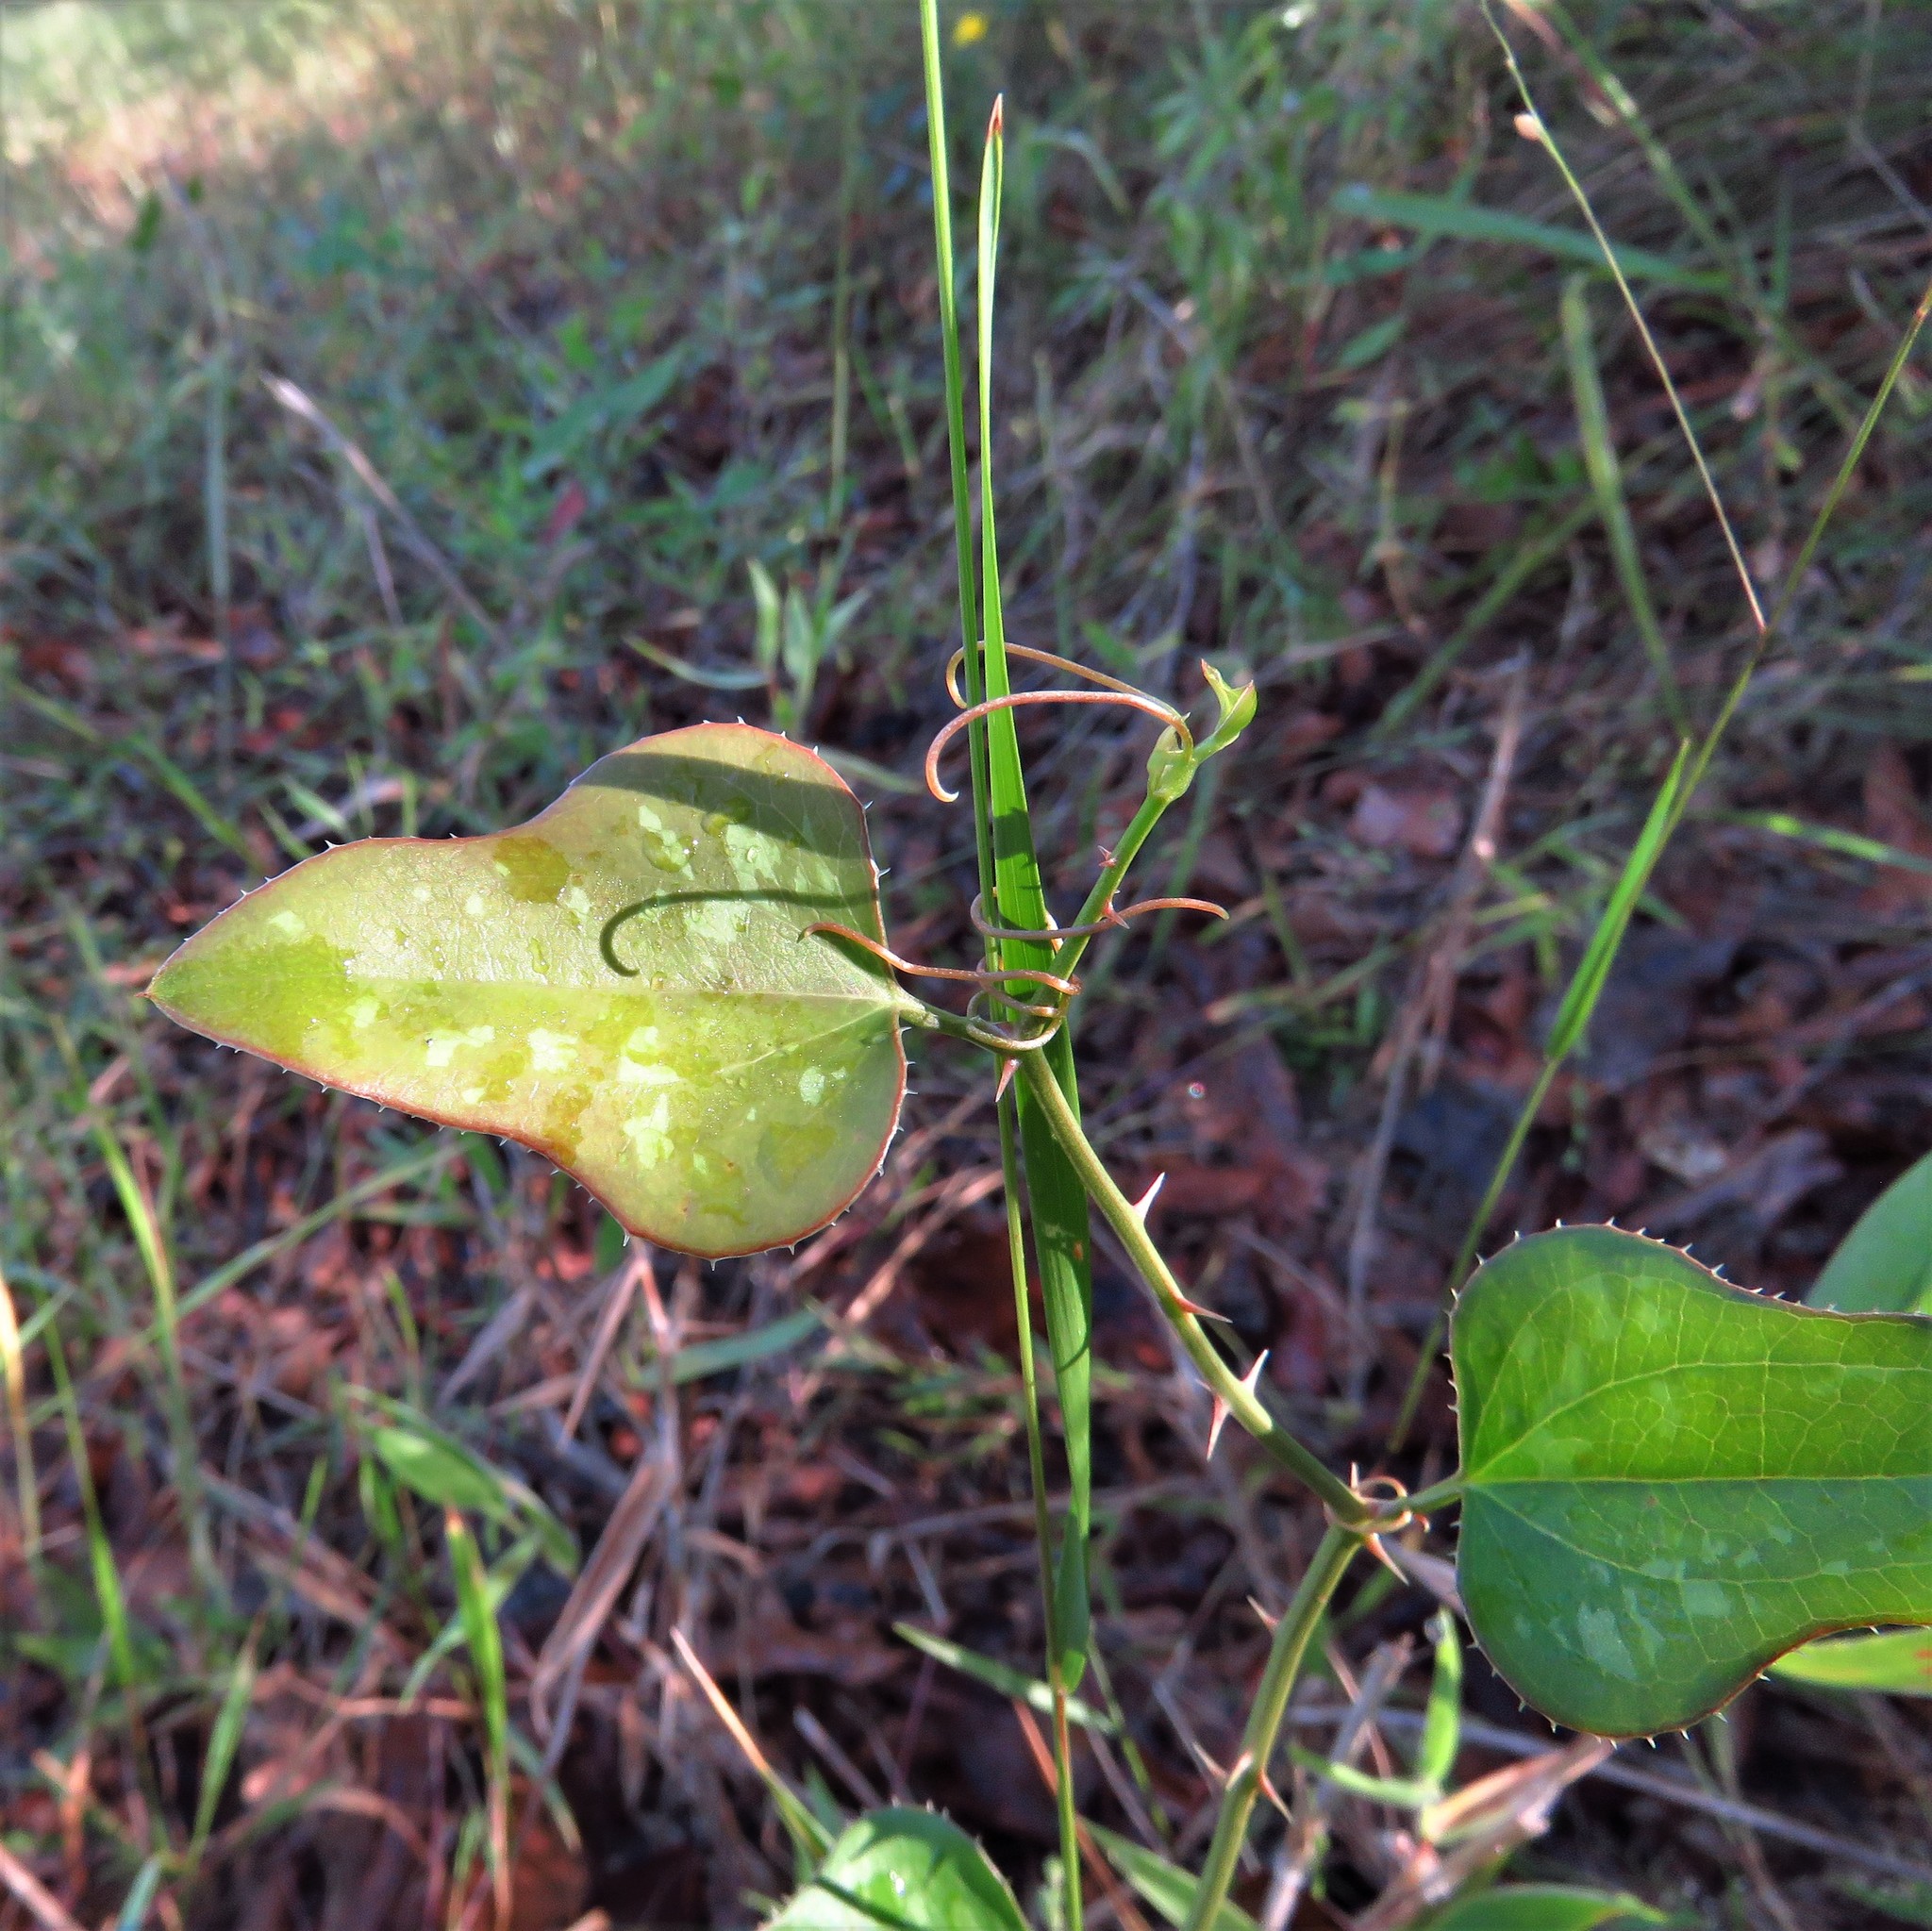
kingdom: Plantae
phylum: Tracheophyta
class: Liliopsida
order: Liliales
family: Smilacaceae
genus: Smilax
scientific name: Smilax bona-nox
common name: Catbrier
